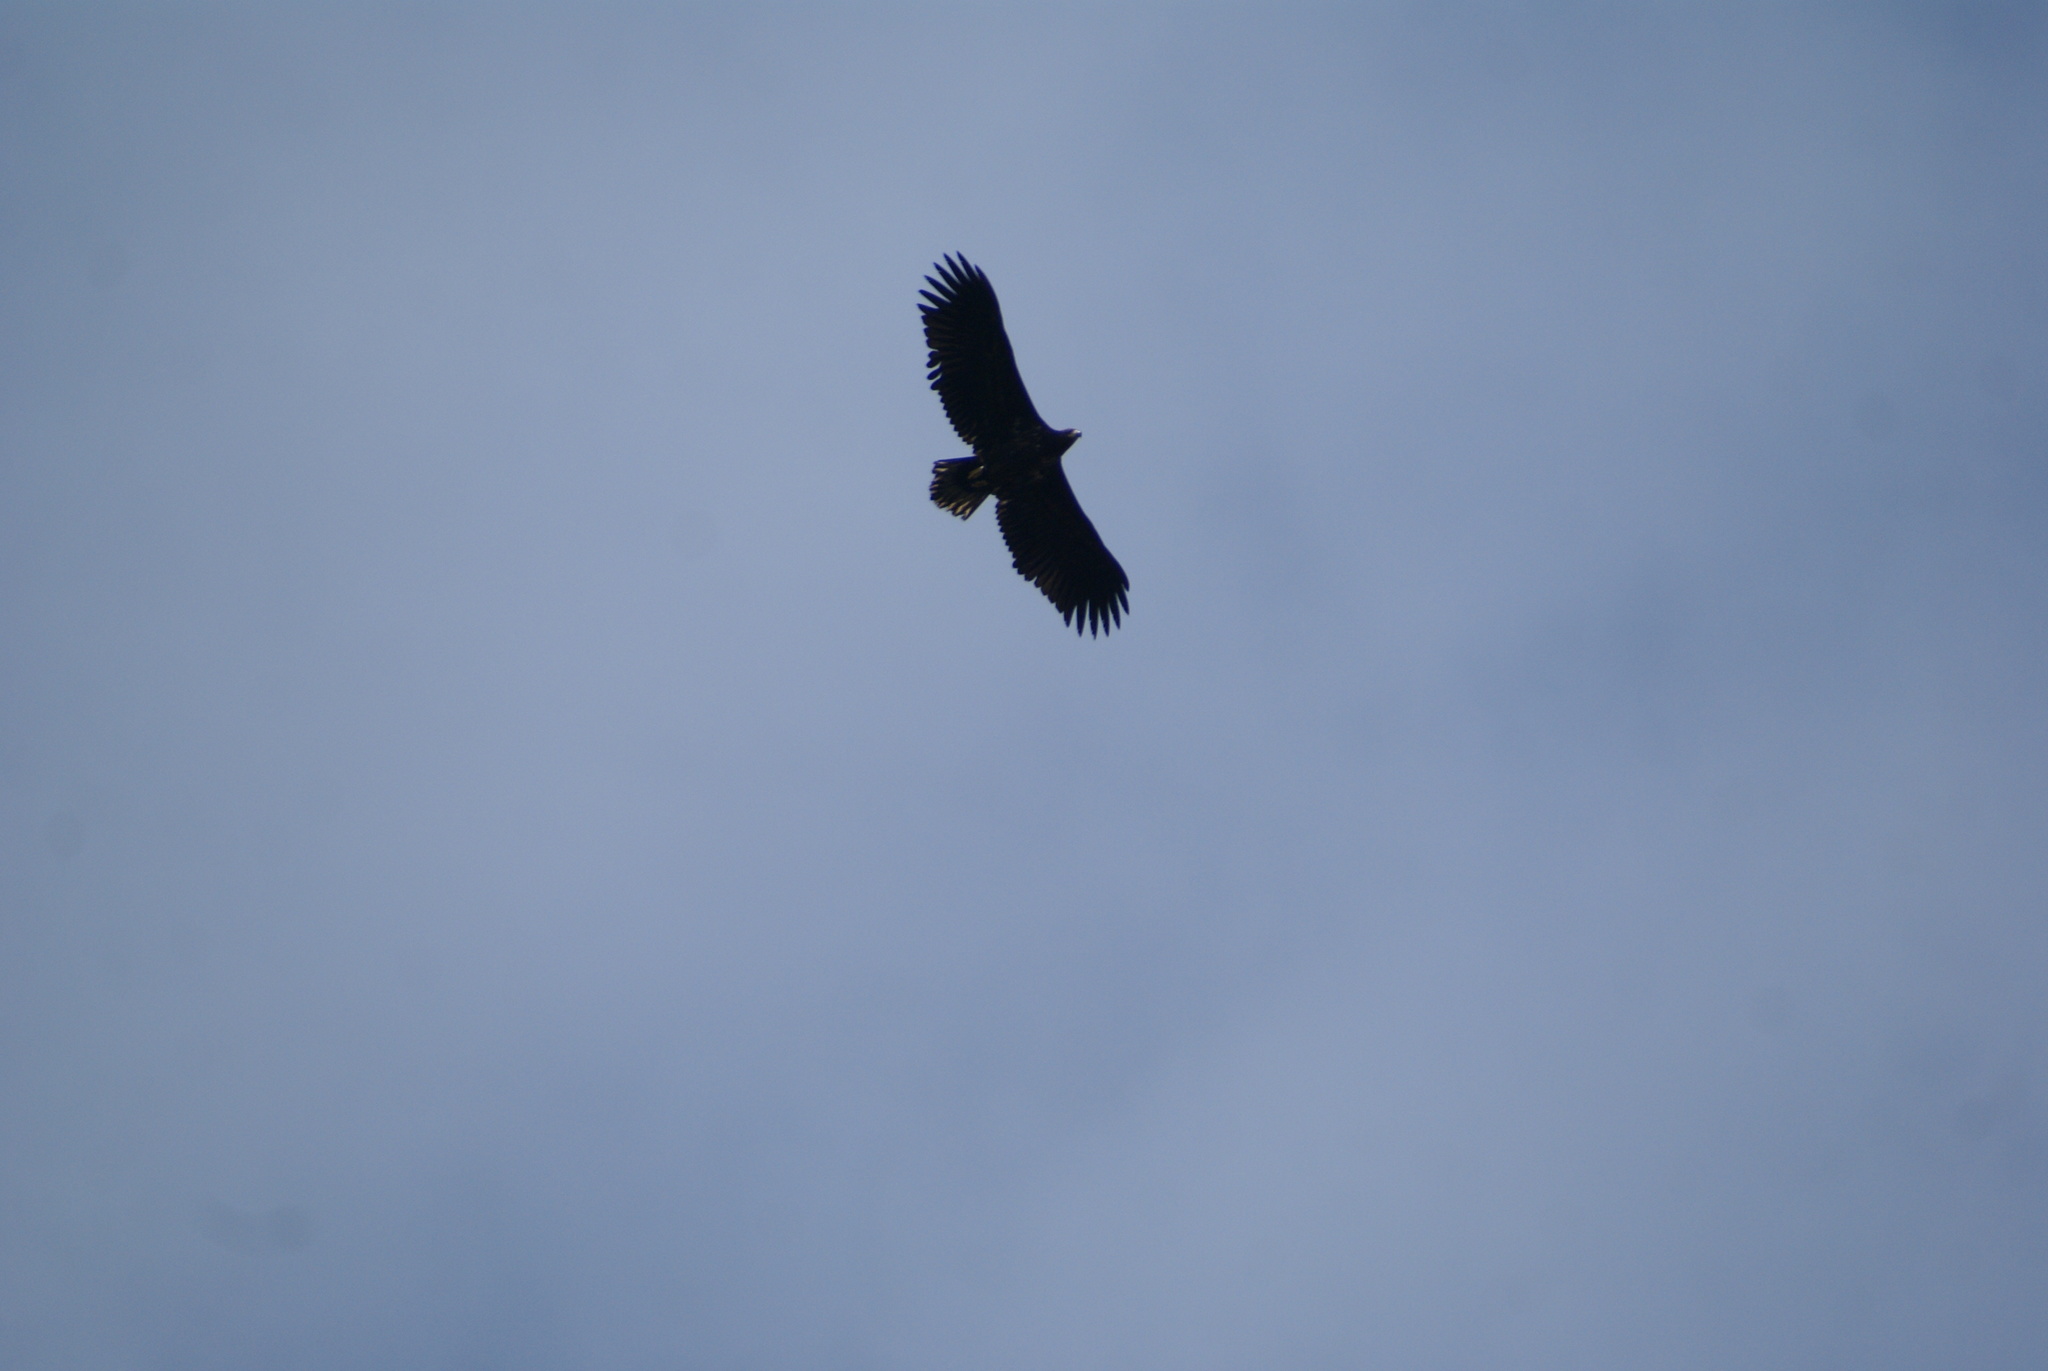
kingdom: Animalia
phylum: Chordata
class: Aves
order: Accipitriformes
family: Accipitridae
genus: Haliaeetus
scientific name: Haliaeetus albicilla
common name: White-tailed eagle
